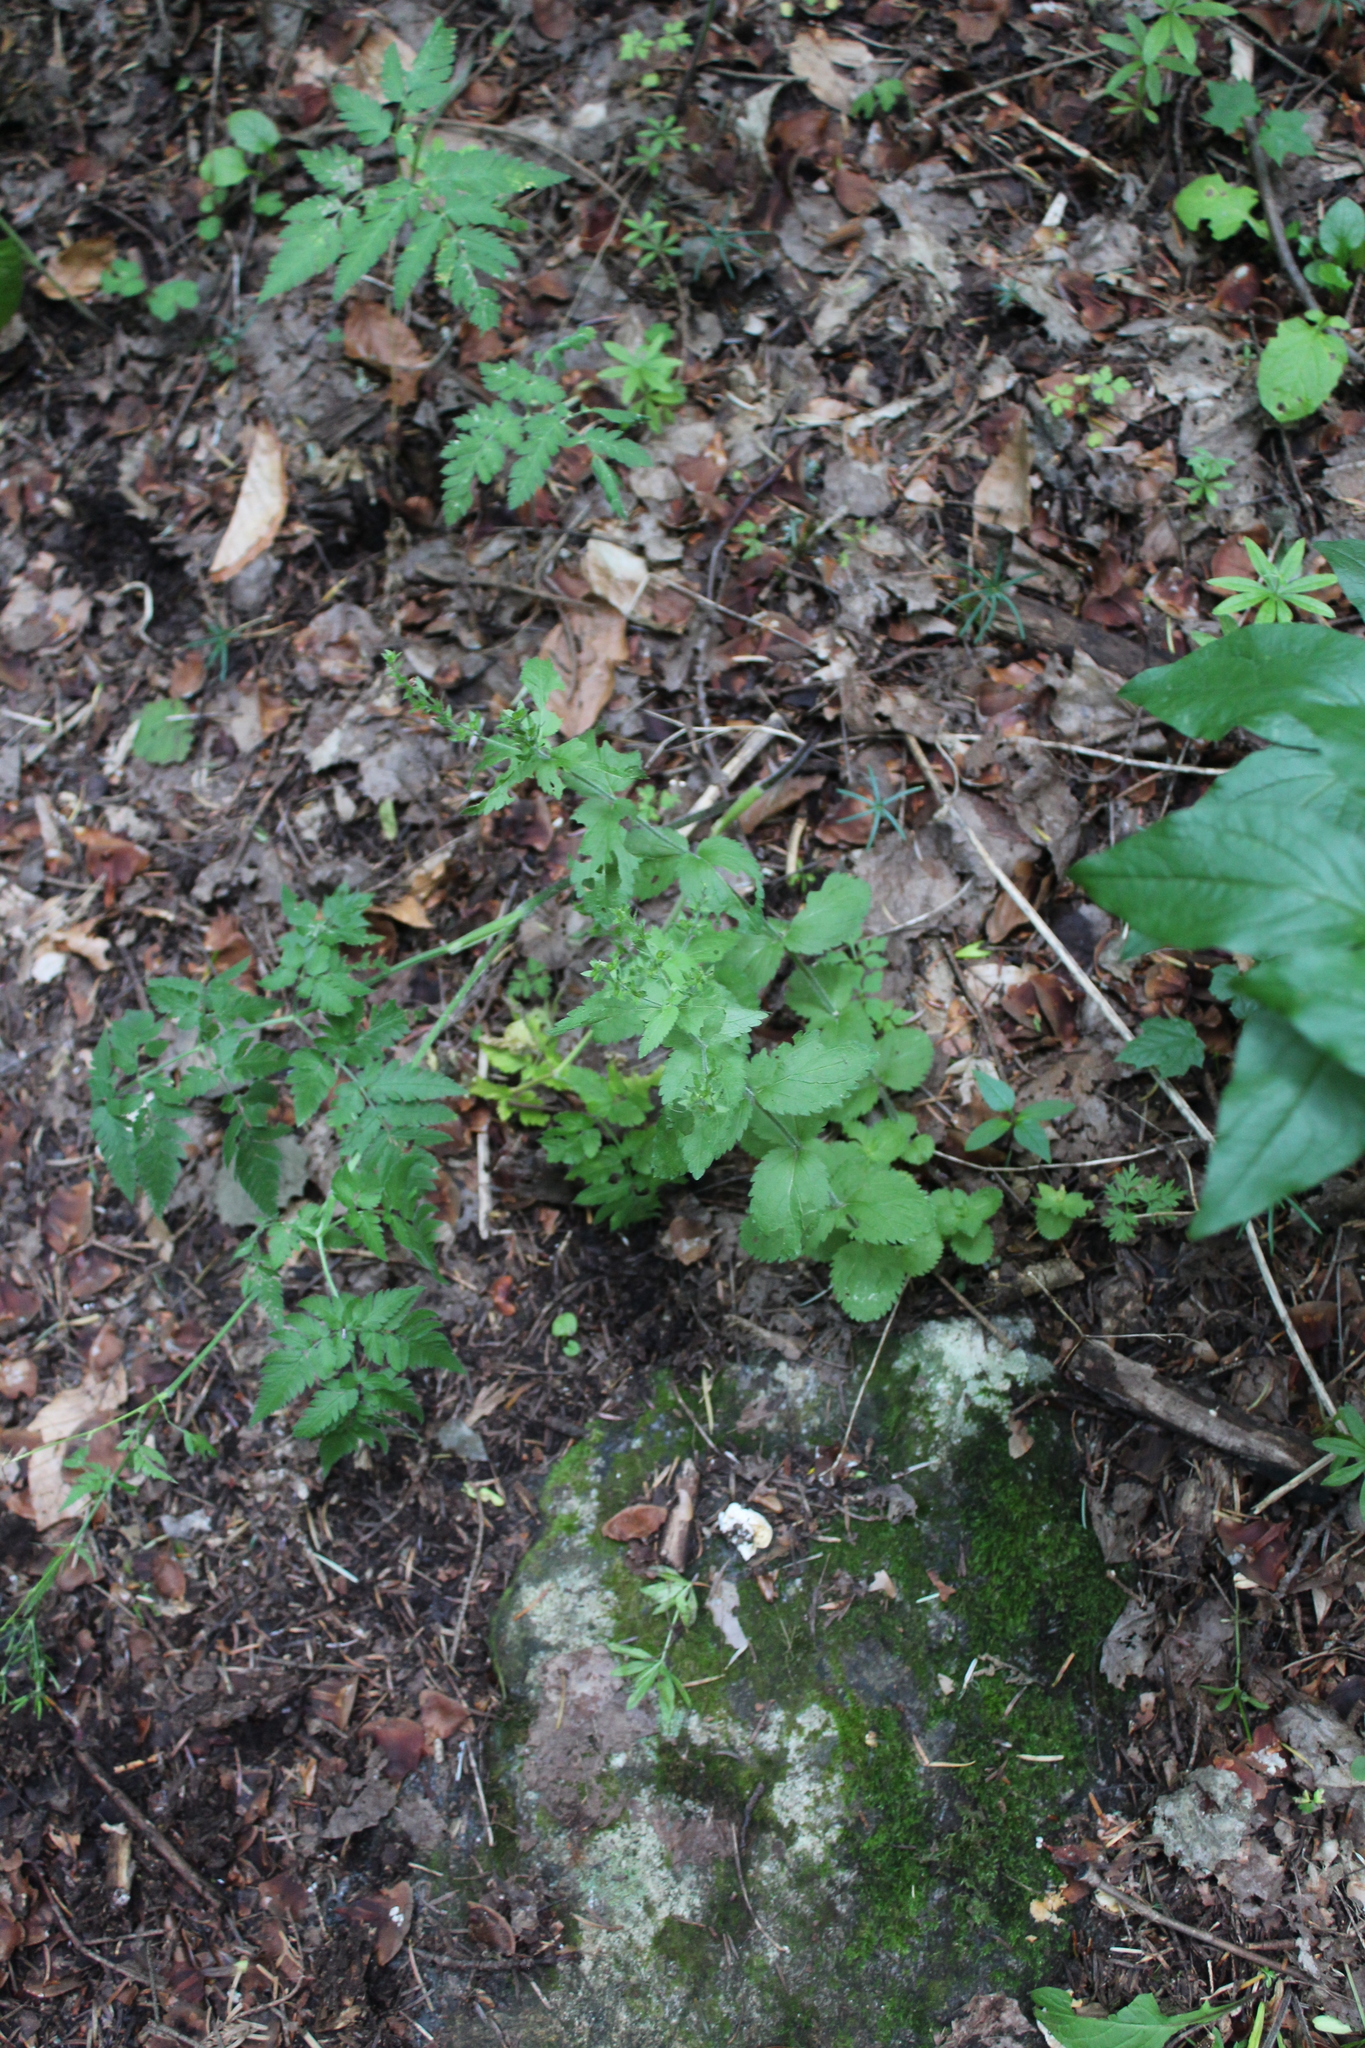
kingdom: Plantae
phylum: Tracheophyta
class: Magnoliopsida
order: Lamiales
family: Plantaginaceae
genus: Veronica
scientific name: Veronica chamaedrys
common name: Germander speedwell
